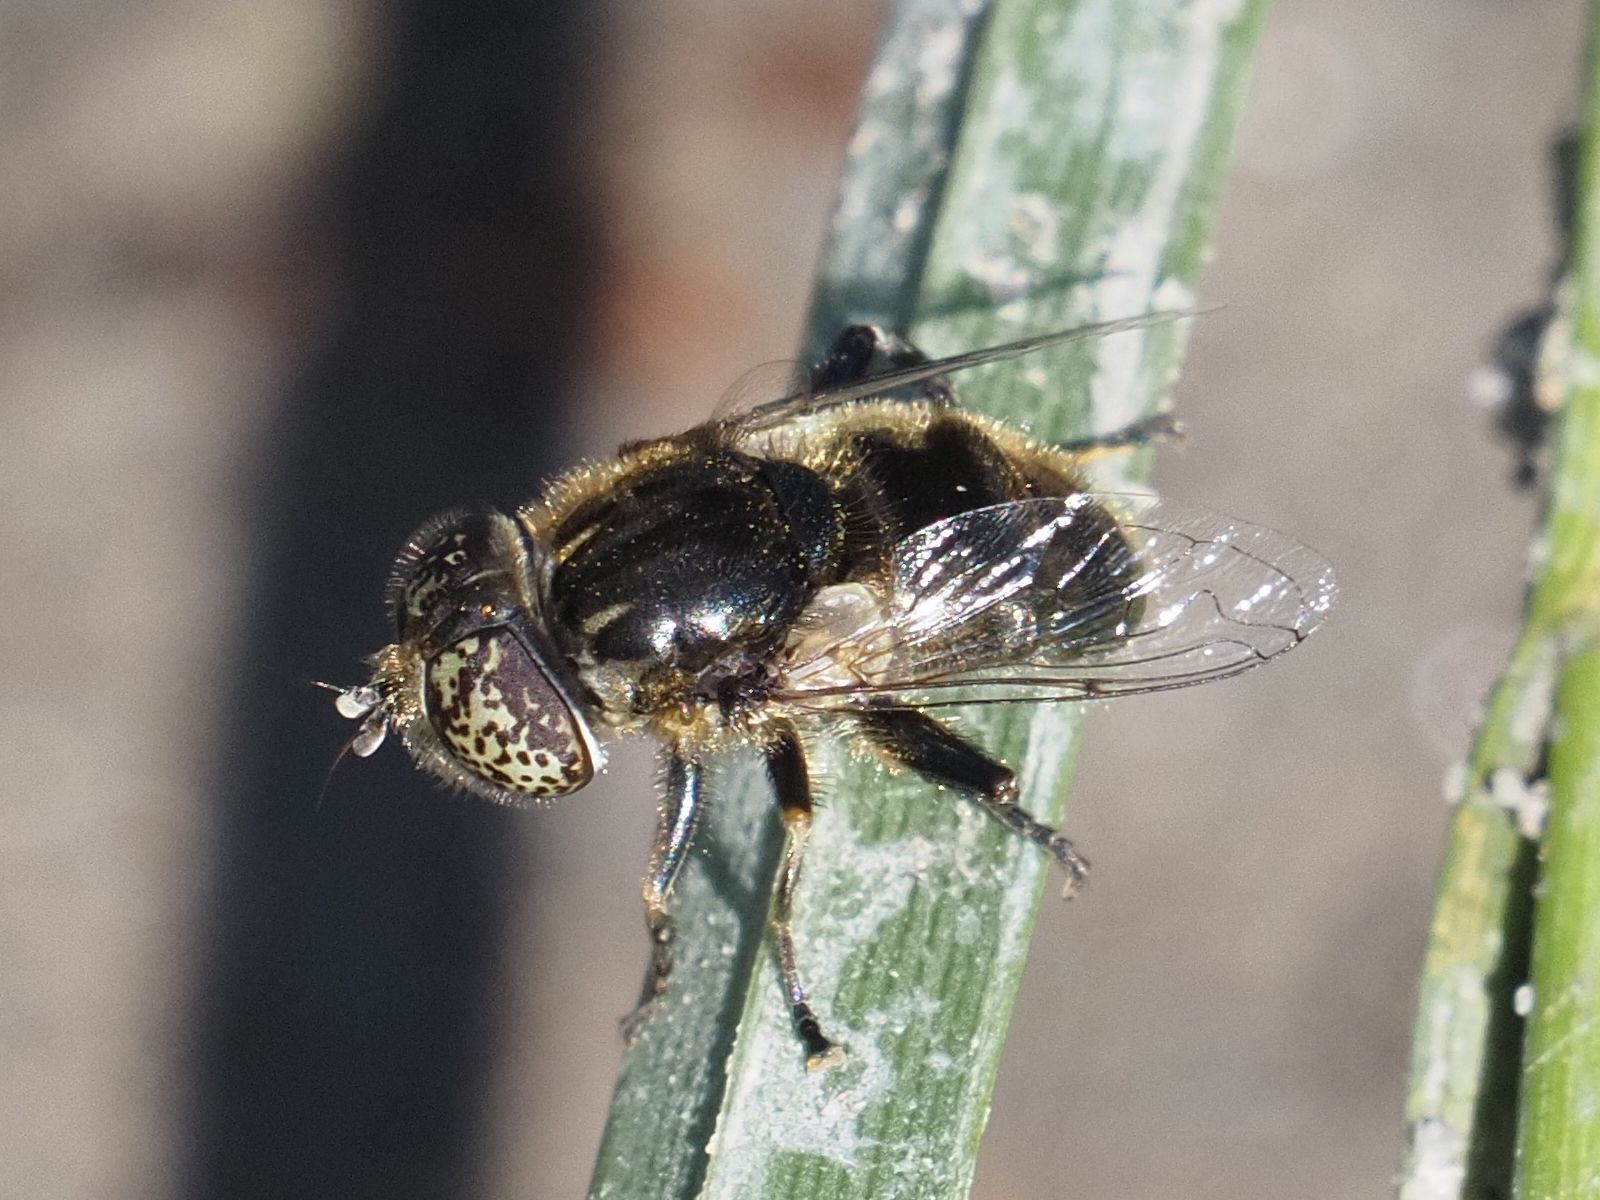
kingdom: Animalia
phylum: Arthropoda
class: Insecta
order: Diptera
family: Syrphidae
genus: Eristalinus
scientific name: Eristalinus sepulchralis
